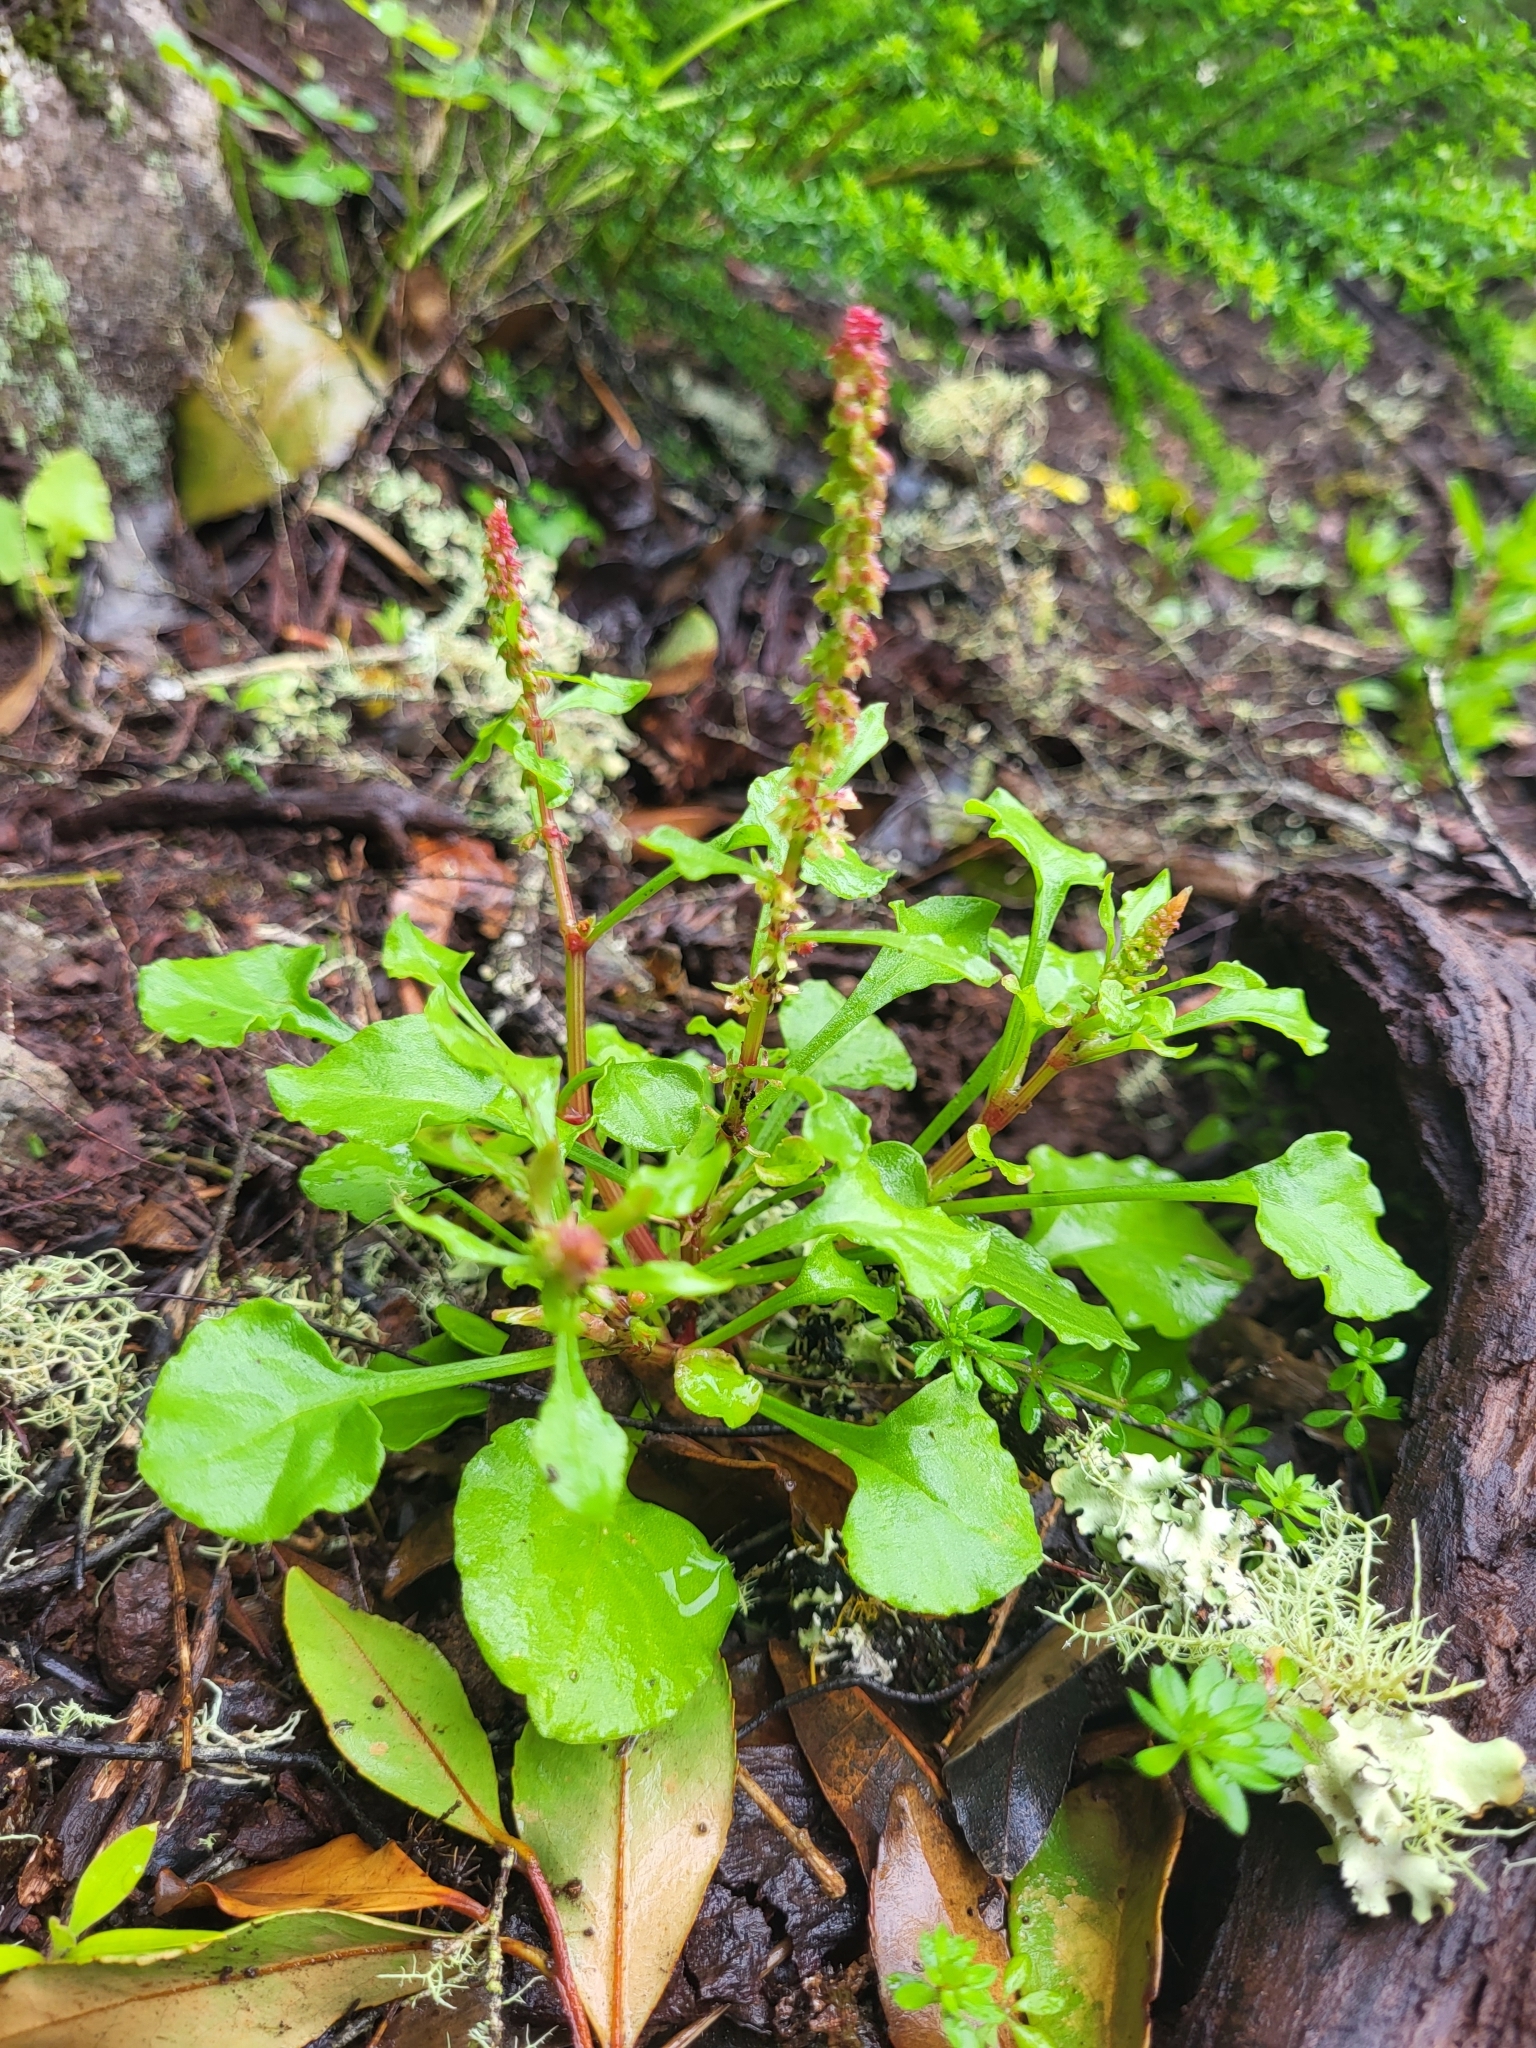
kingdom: Plantae
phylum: Tracheophyta
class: Magnoliopsida
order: Caryophyllales
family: Polygonaceae
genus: Rumex
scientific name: Rumex bucephalophorus
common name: Red dock
